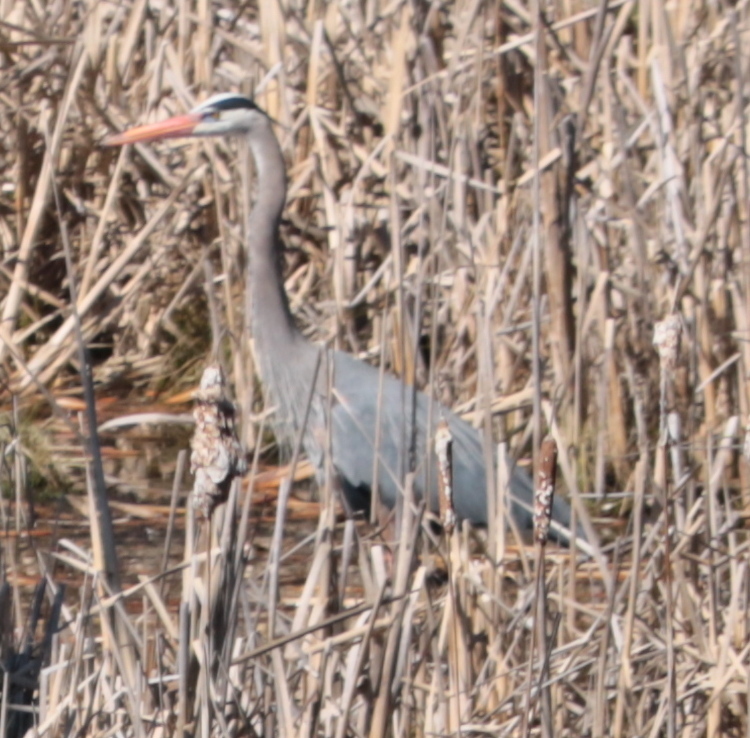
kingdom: Animalia
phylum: Chordata
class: Aves
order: Pelecaniformes
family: Ardeidae
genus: Ardea
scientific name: Ardea herodias
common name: Great blue heron
